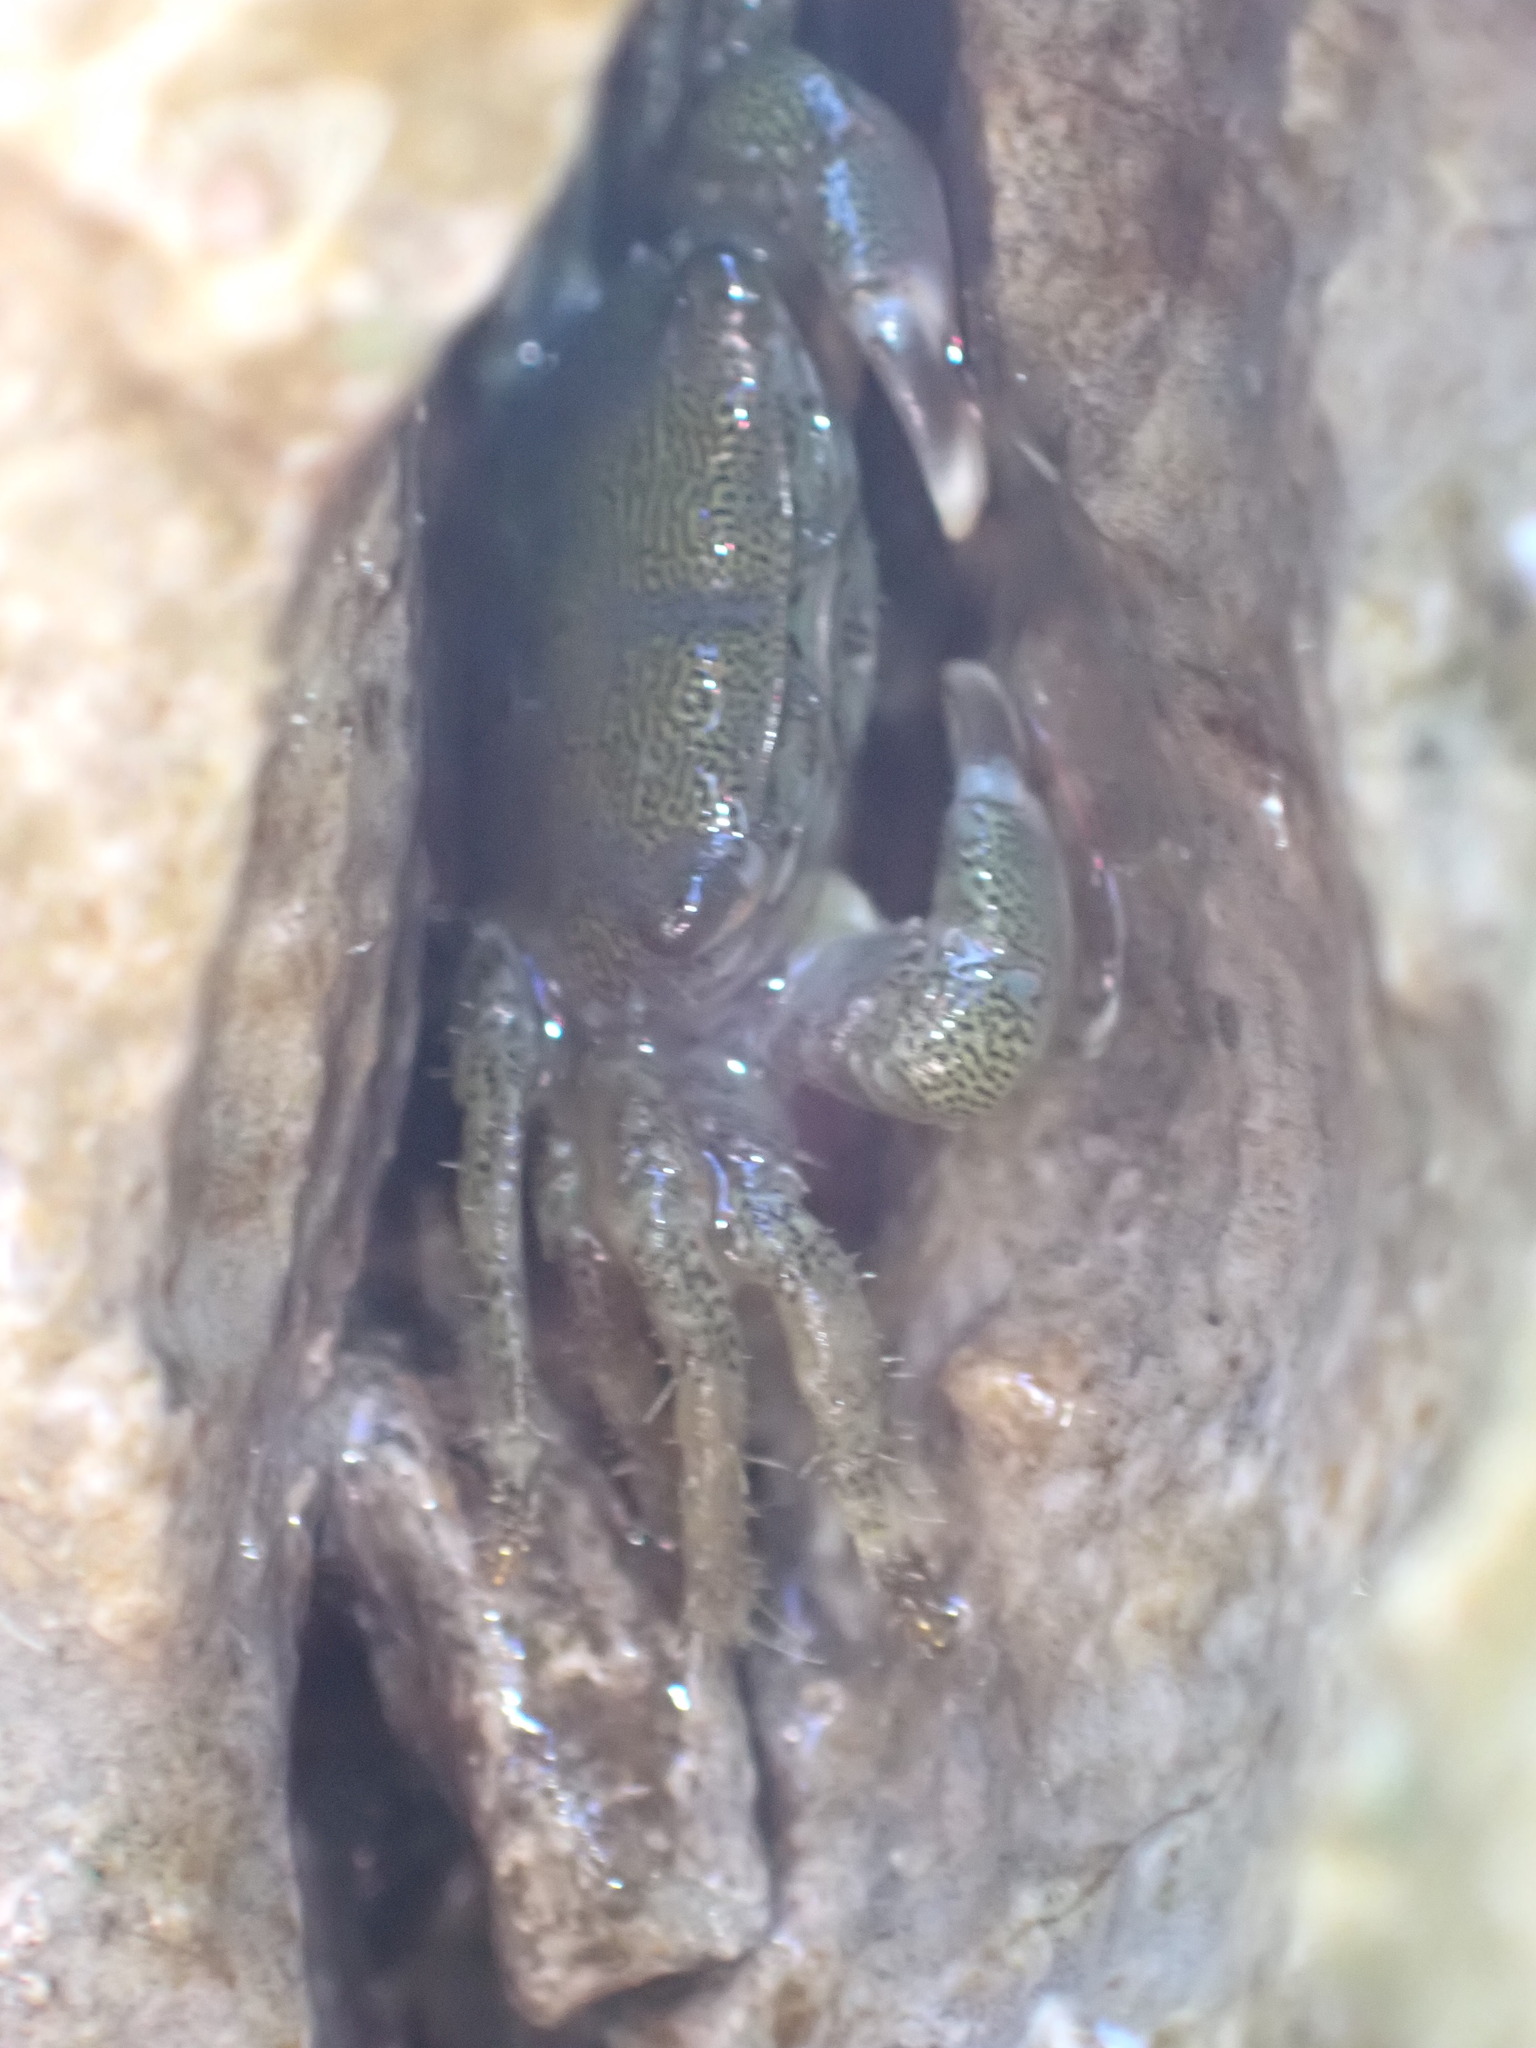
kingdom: Animalia
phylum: Arthropoda
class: Malacostraca
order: Decapoda
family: Grapsidae
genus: Pachygrapsus
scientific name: Pachygrapsus marmoratus
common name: Marbled rock crab
